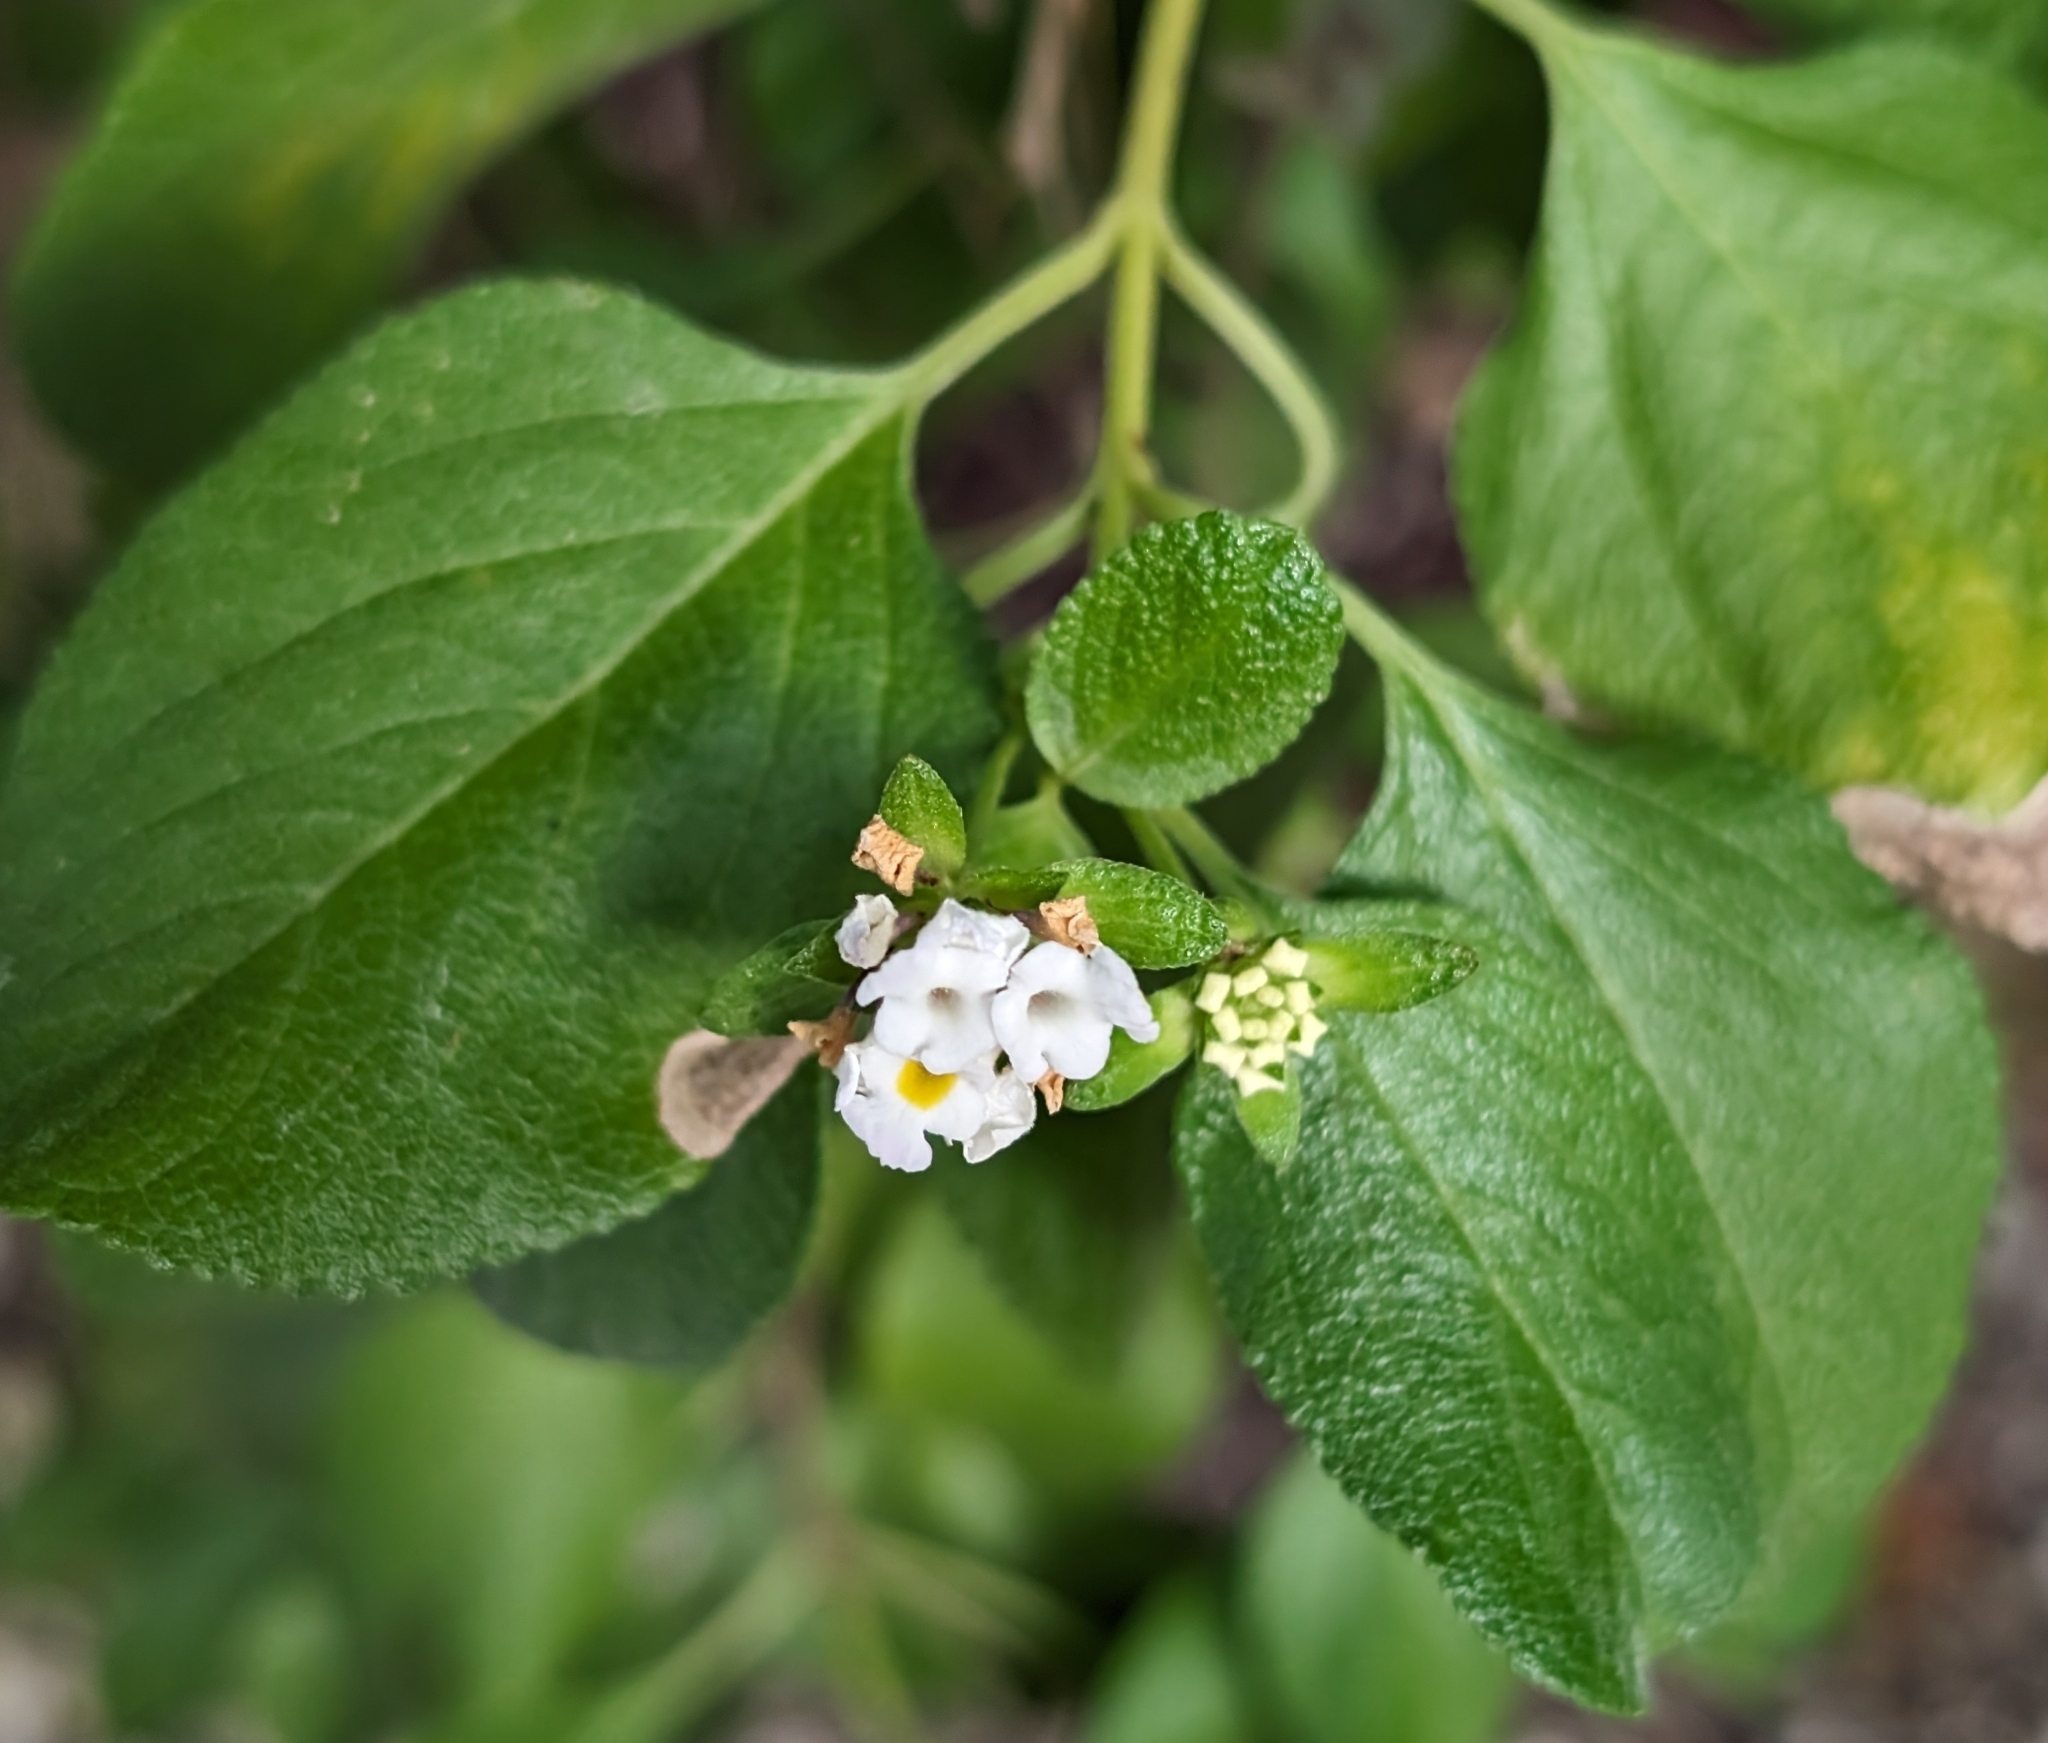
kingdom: Plantae
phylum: Tracheophyta
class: Magnoliopsida
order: Lamiales
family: Verbenaceae
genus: Lantana
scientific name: Lantana involucrata
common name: Black sage
